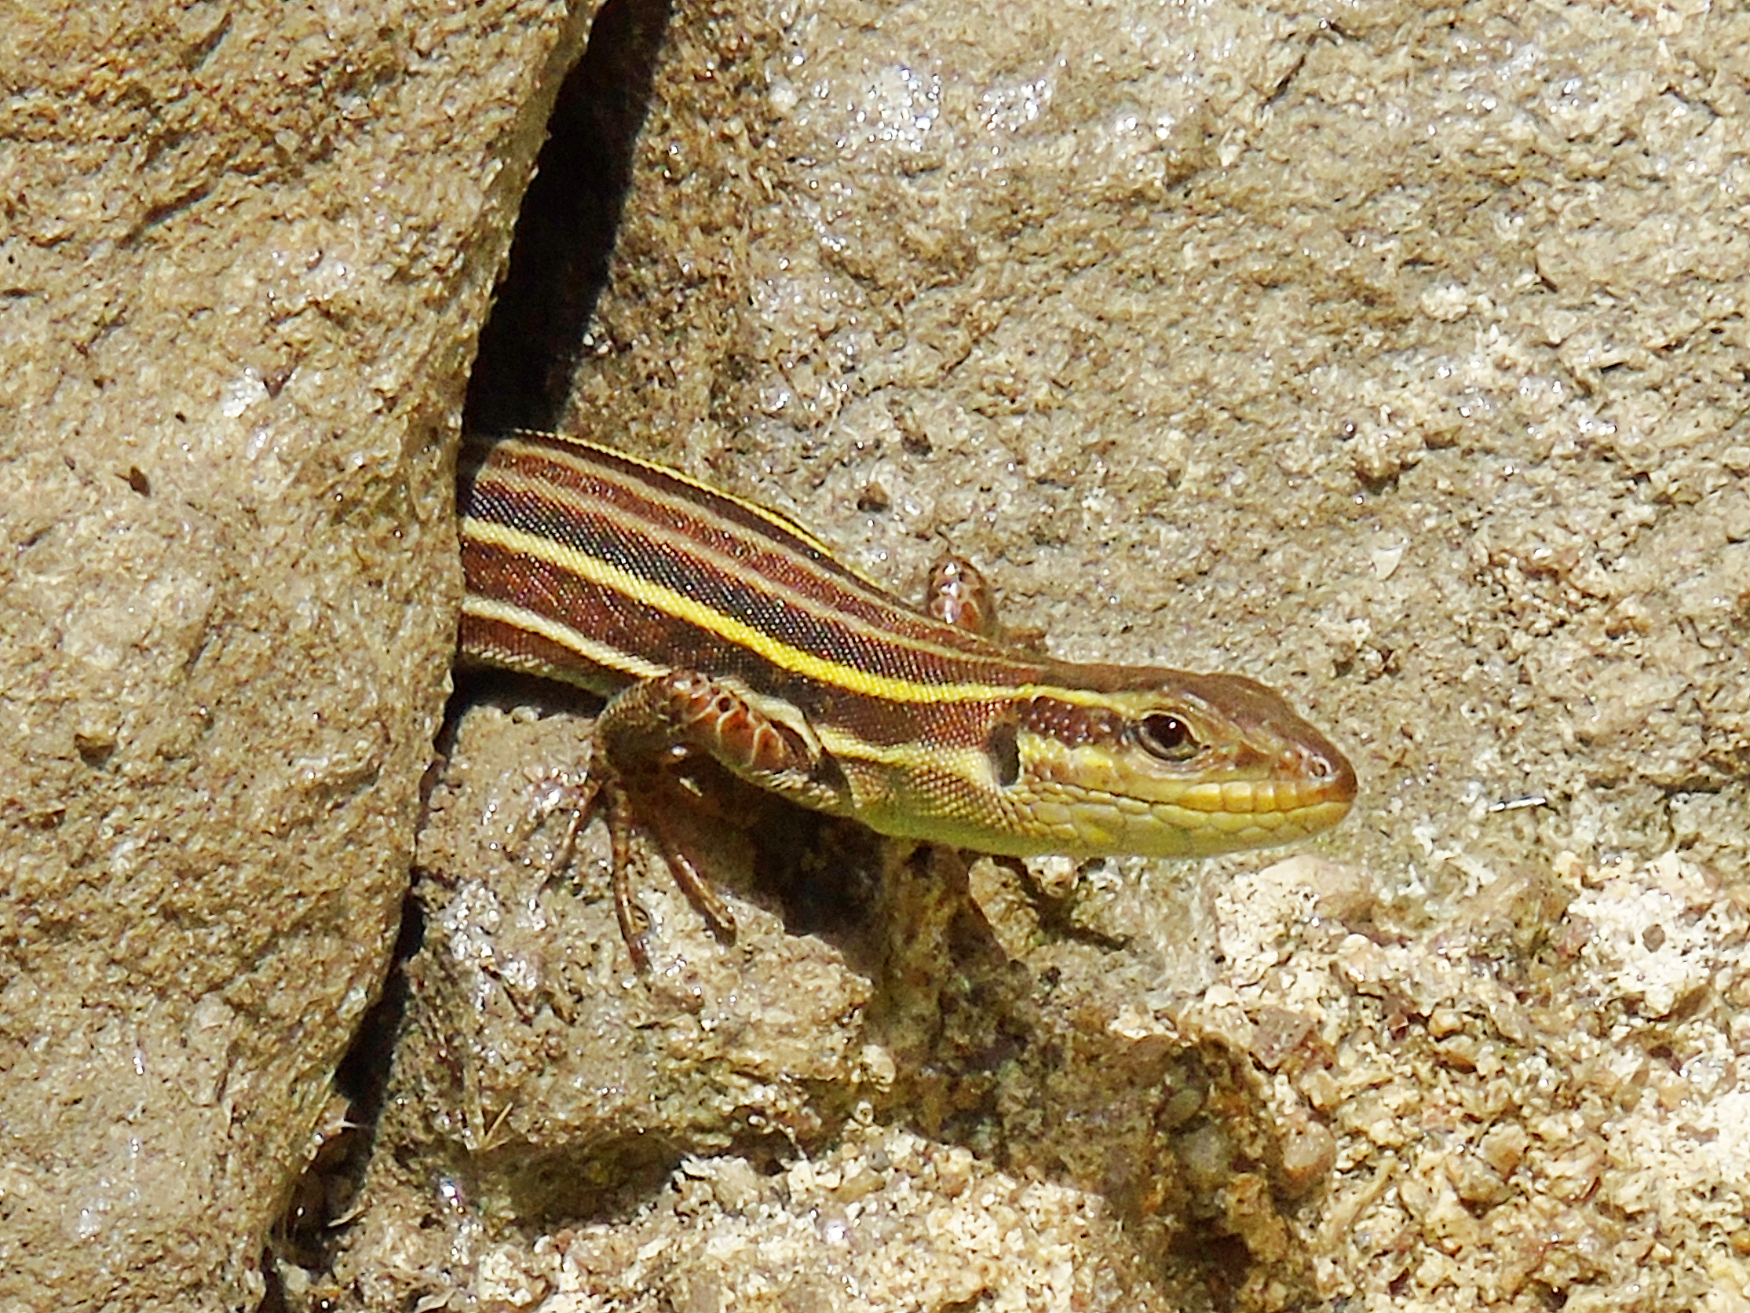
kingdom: Animalia
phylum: Chordata
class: Squamata
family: Lacertidae
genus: Podarcis
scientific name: Podarcis peloponnesiacus
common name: Peloponnese wall lizard
